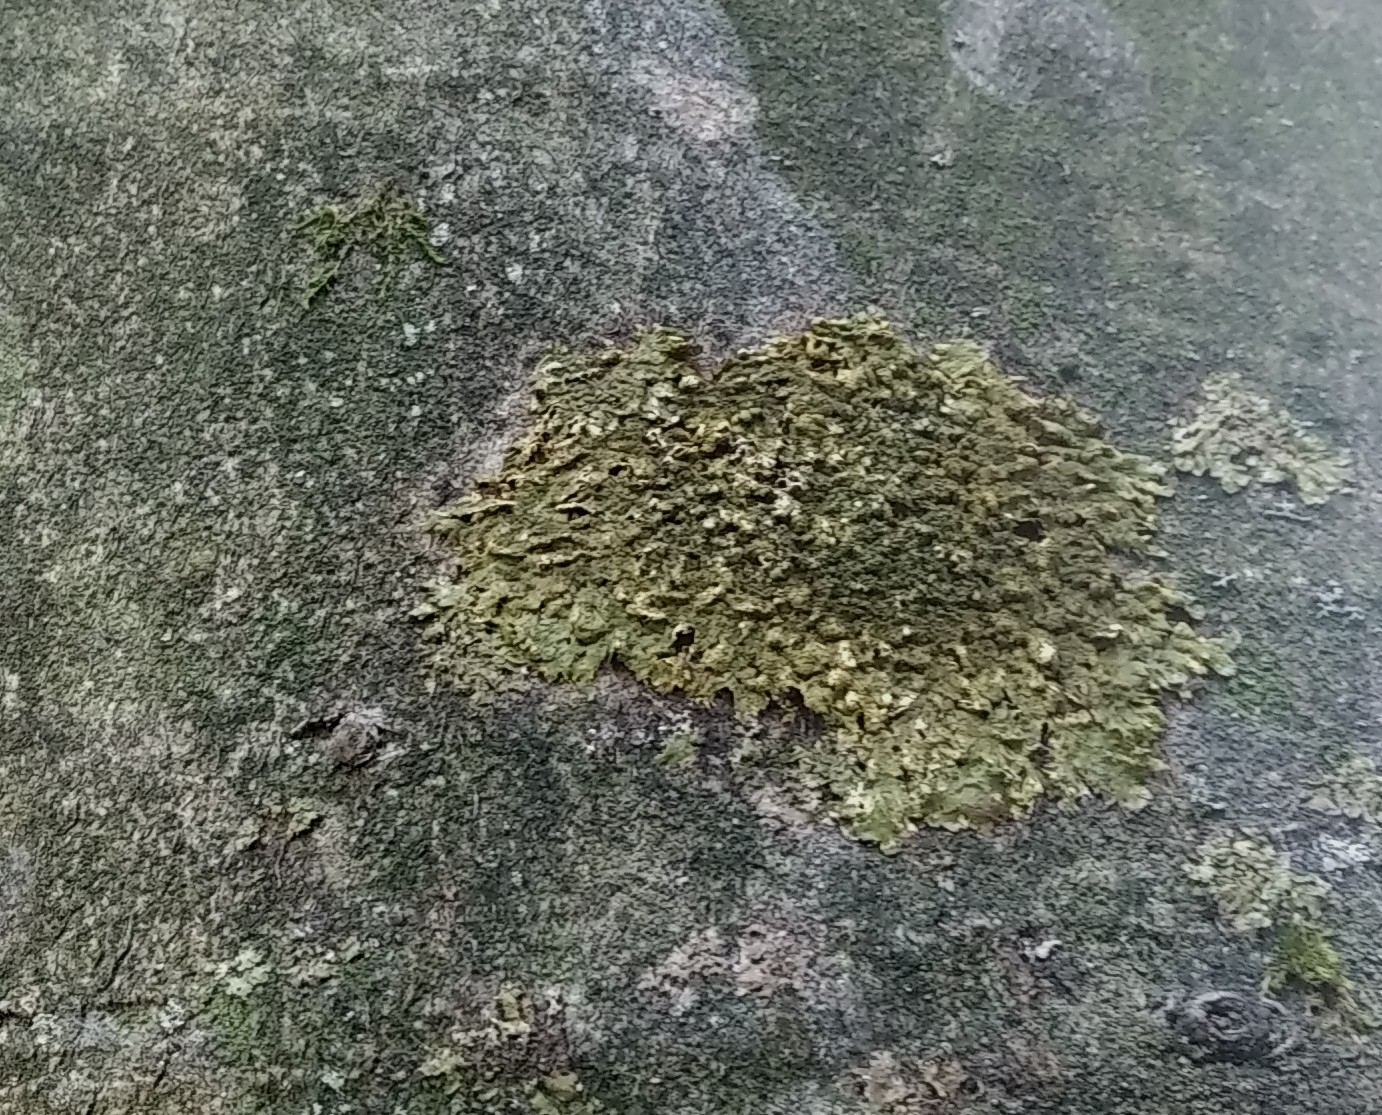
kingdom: Fungi
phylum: Ascomycota
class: Lecanoromycetes
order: Lecanorales
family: Parmeliaceae
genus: Melanelixia
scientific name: Melanelixia glabratula
